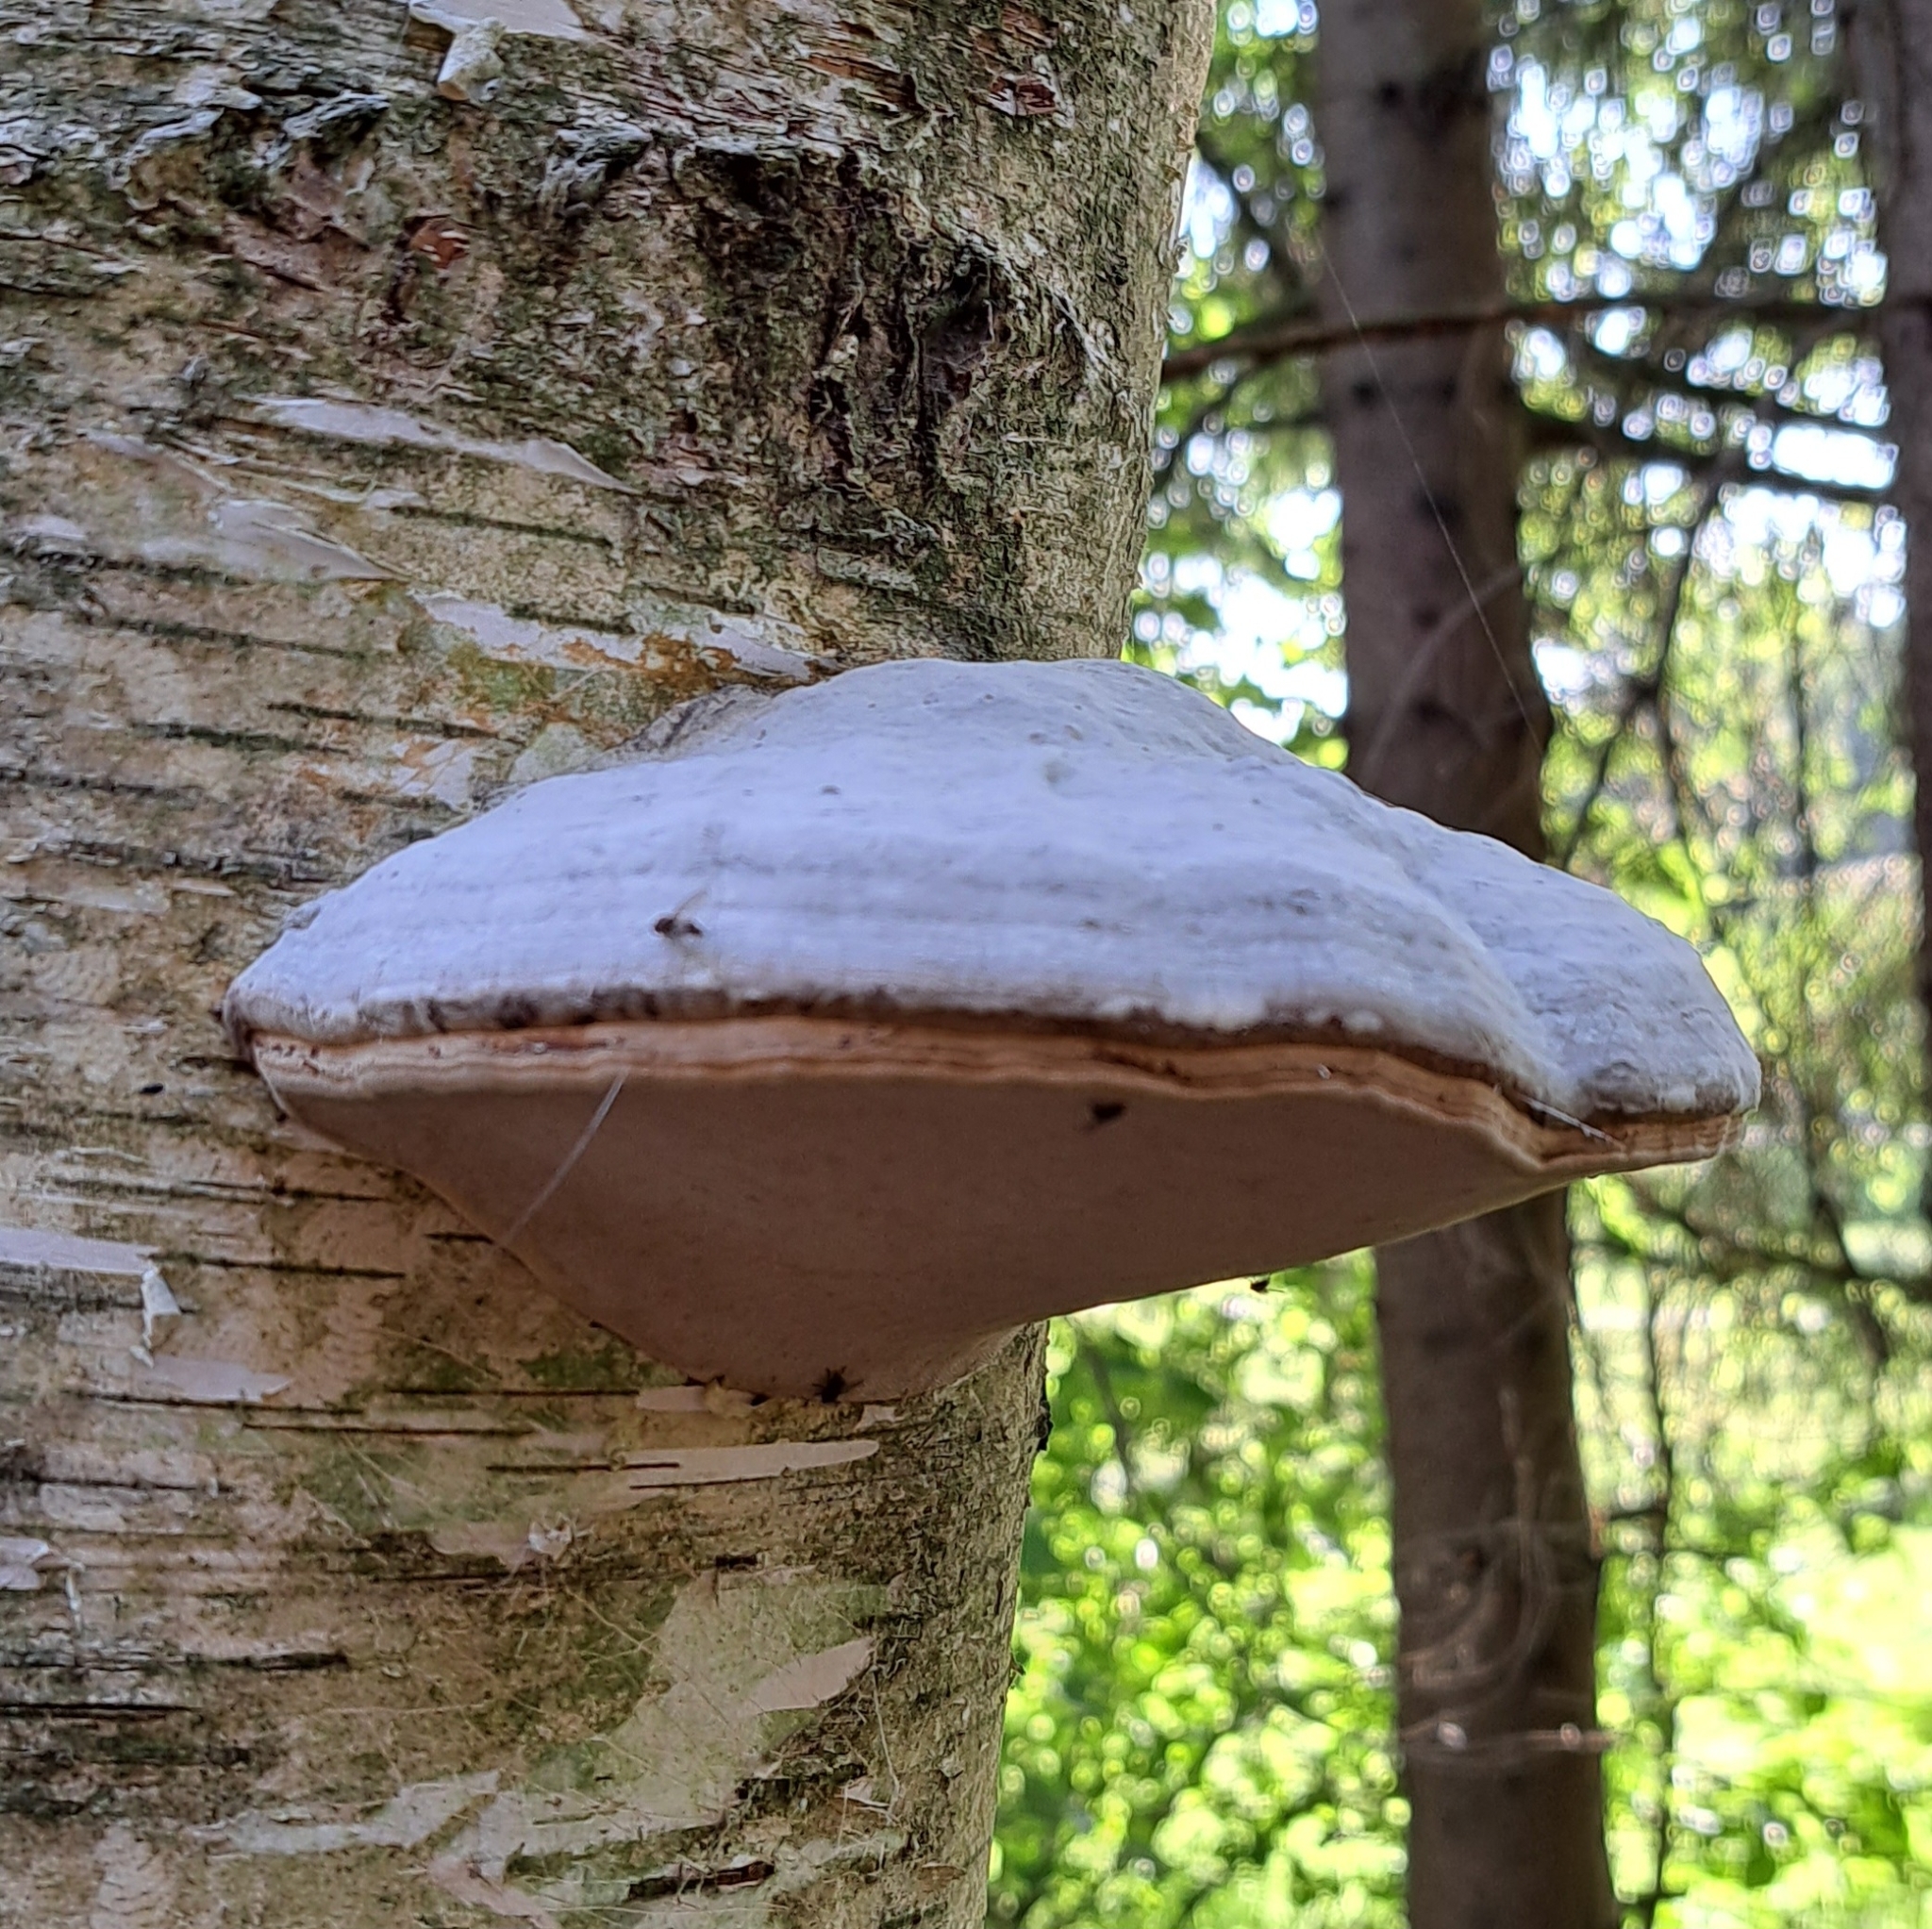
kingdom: Fungi
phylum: Basidiomycota
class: Agaricomycetes
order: Polyporales
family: Polyporaceae
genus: Fomes
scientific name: Fomes fomentarius
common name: Hoof fungus
